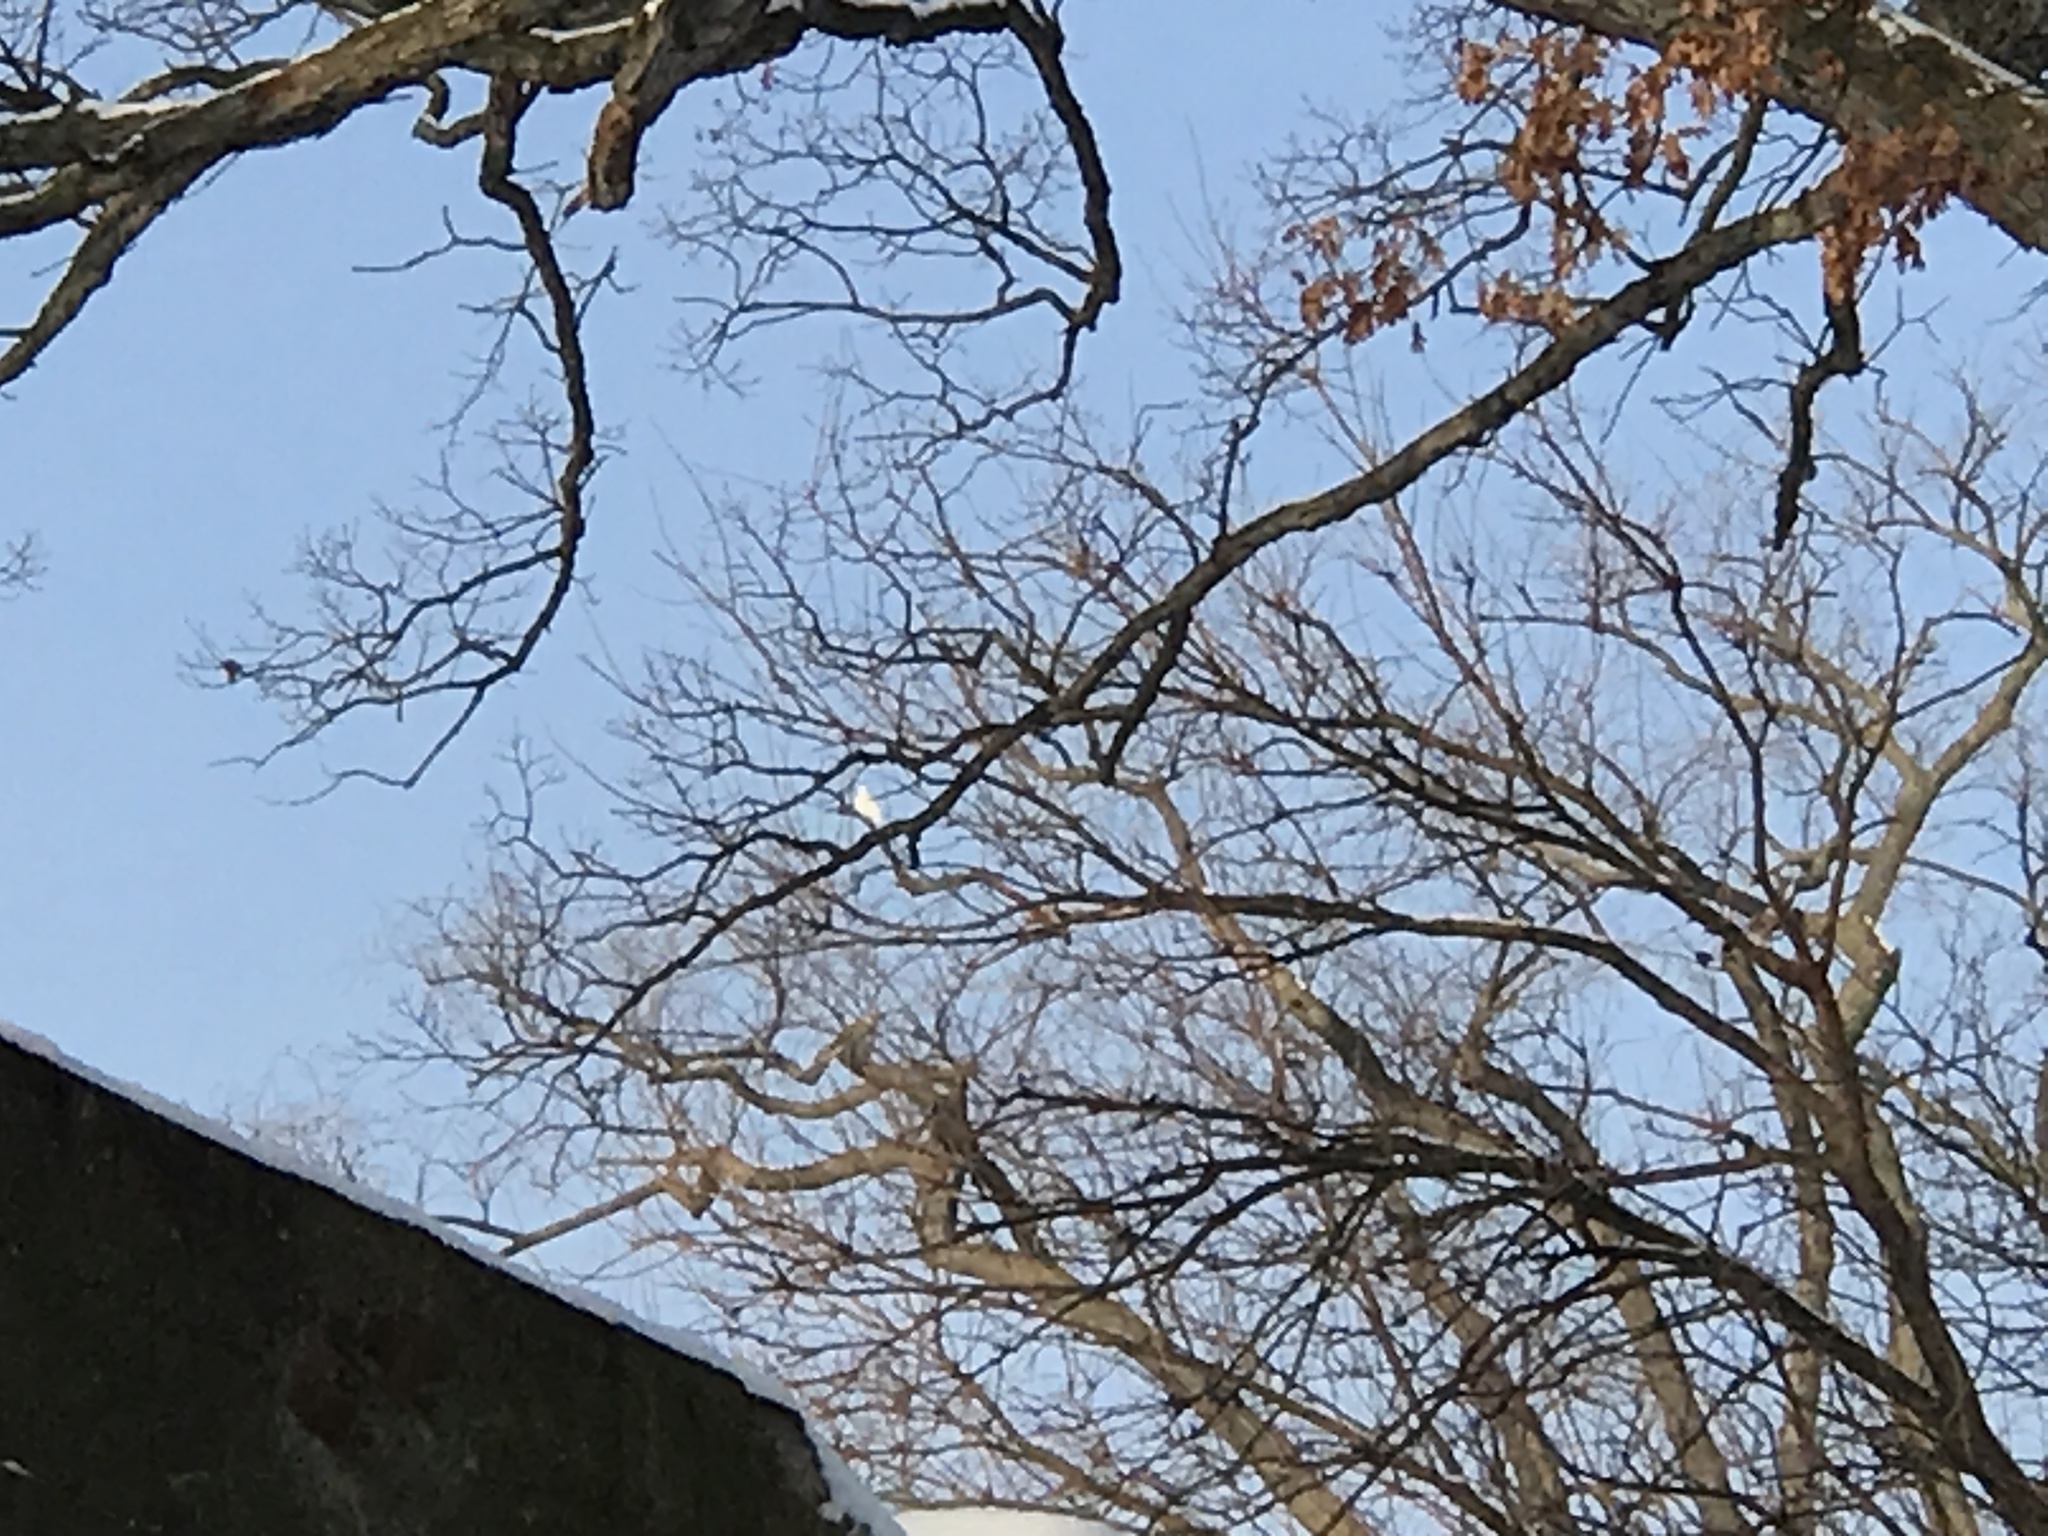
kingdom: Animalia
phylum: Chordata
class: Aves
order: Columbiformes
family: Columbidae
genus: Columba
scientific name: Columba livia
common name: Rock pigeon
